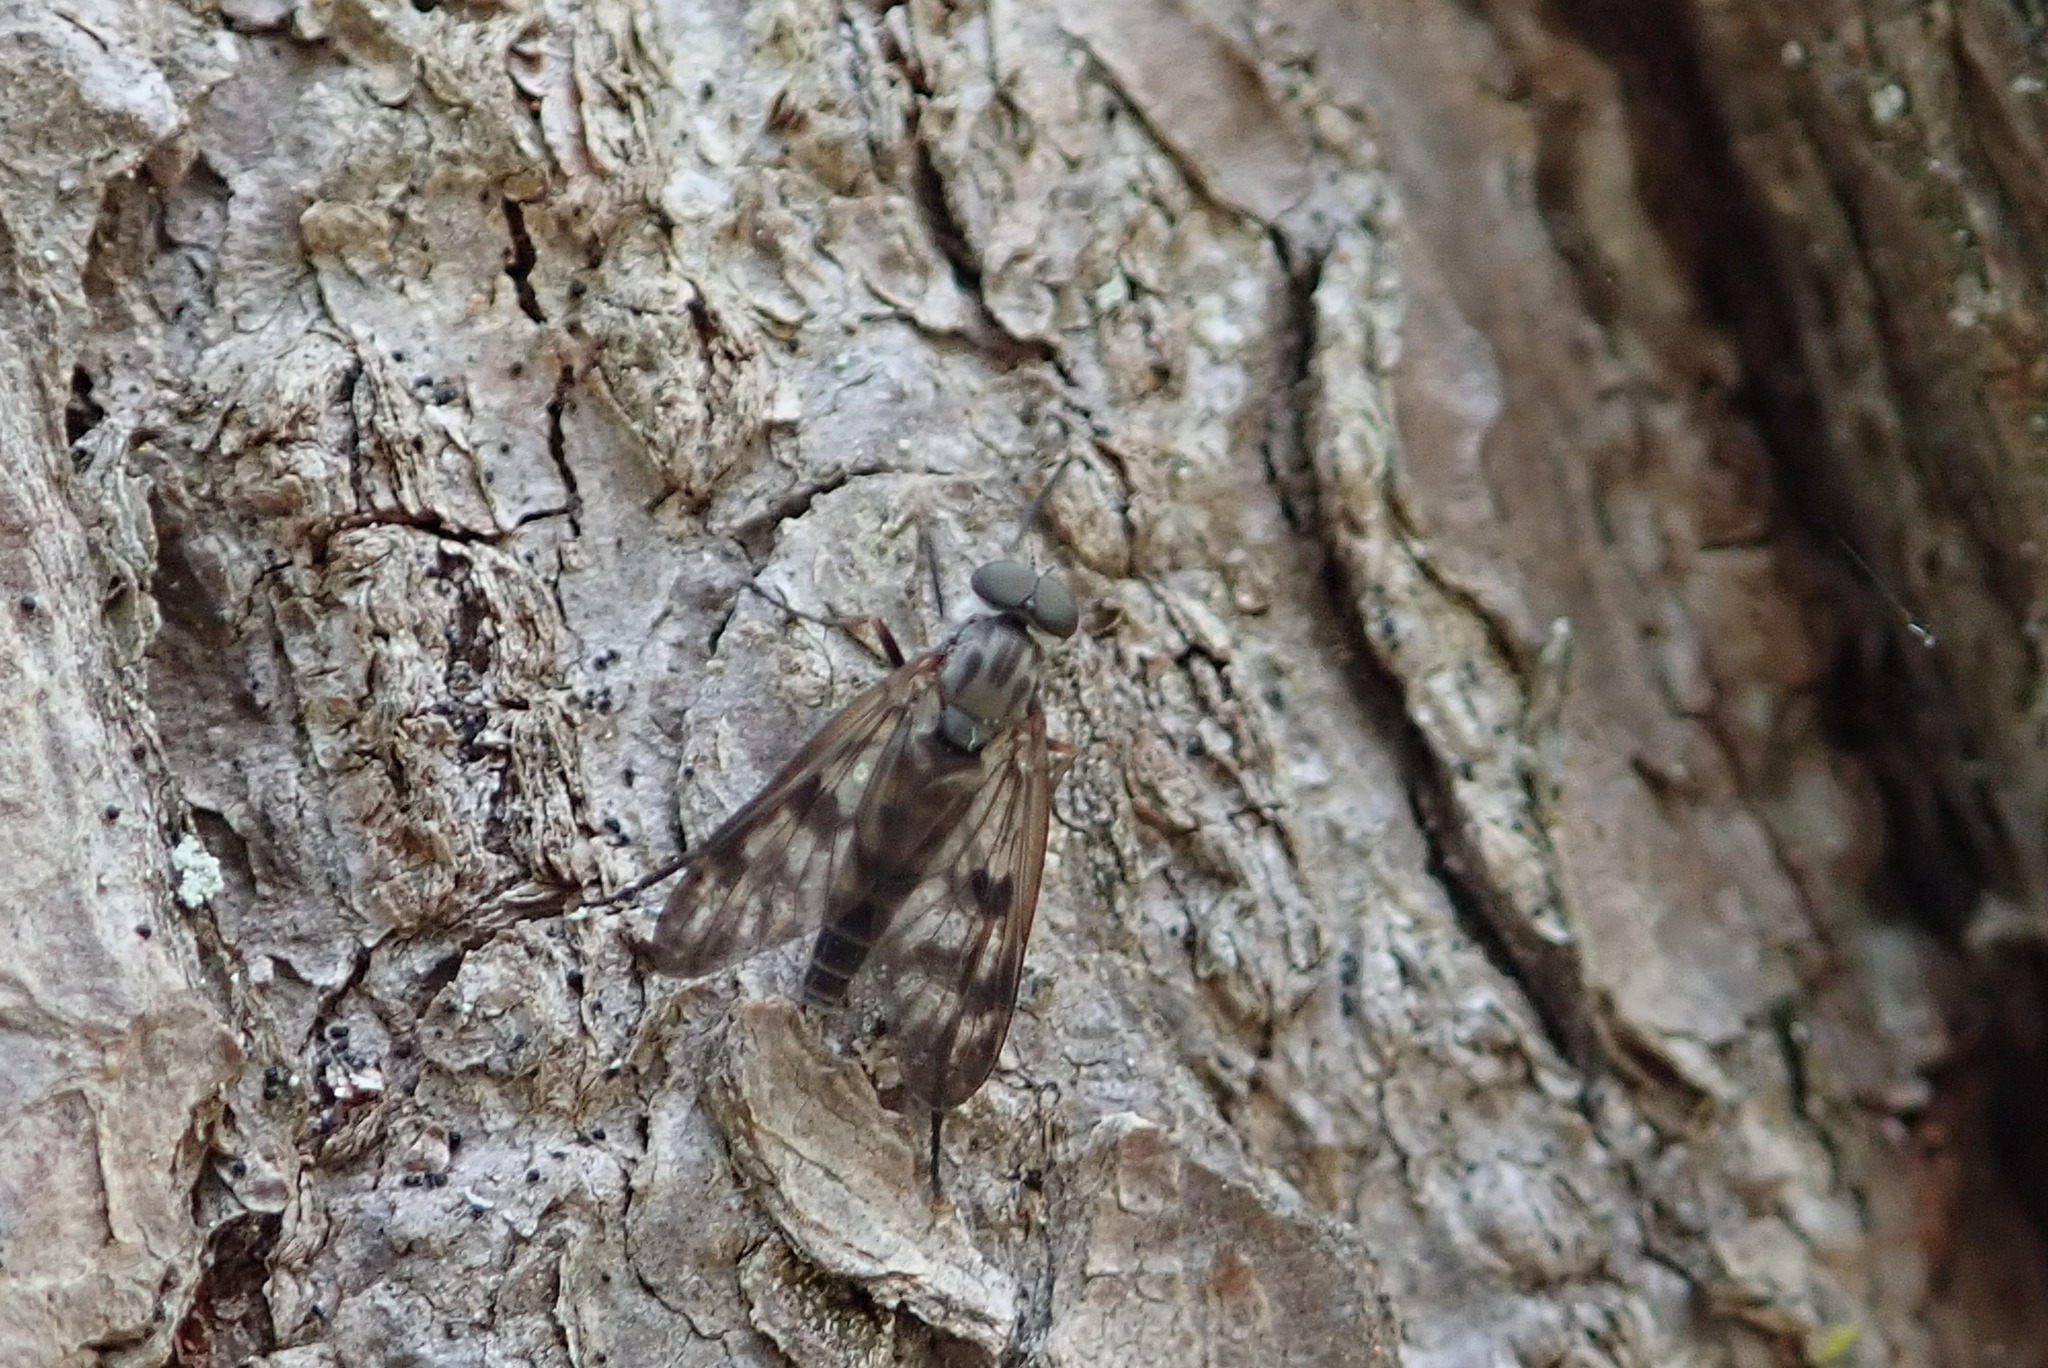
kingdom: Animalia
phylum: Arthropoda
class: Insecta
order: Diptera
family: Rhagionidae
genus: Rhagio
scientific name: Rhagio mystaceus
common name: Common snipe fly
